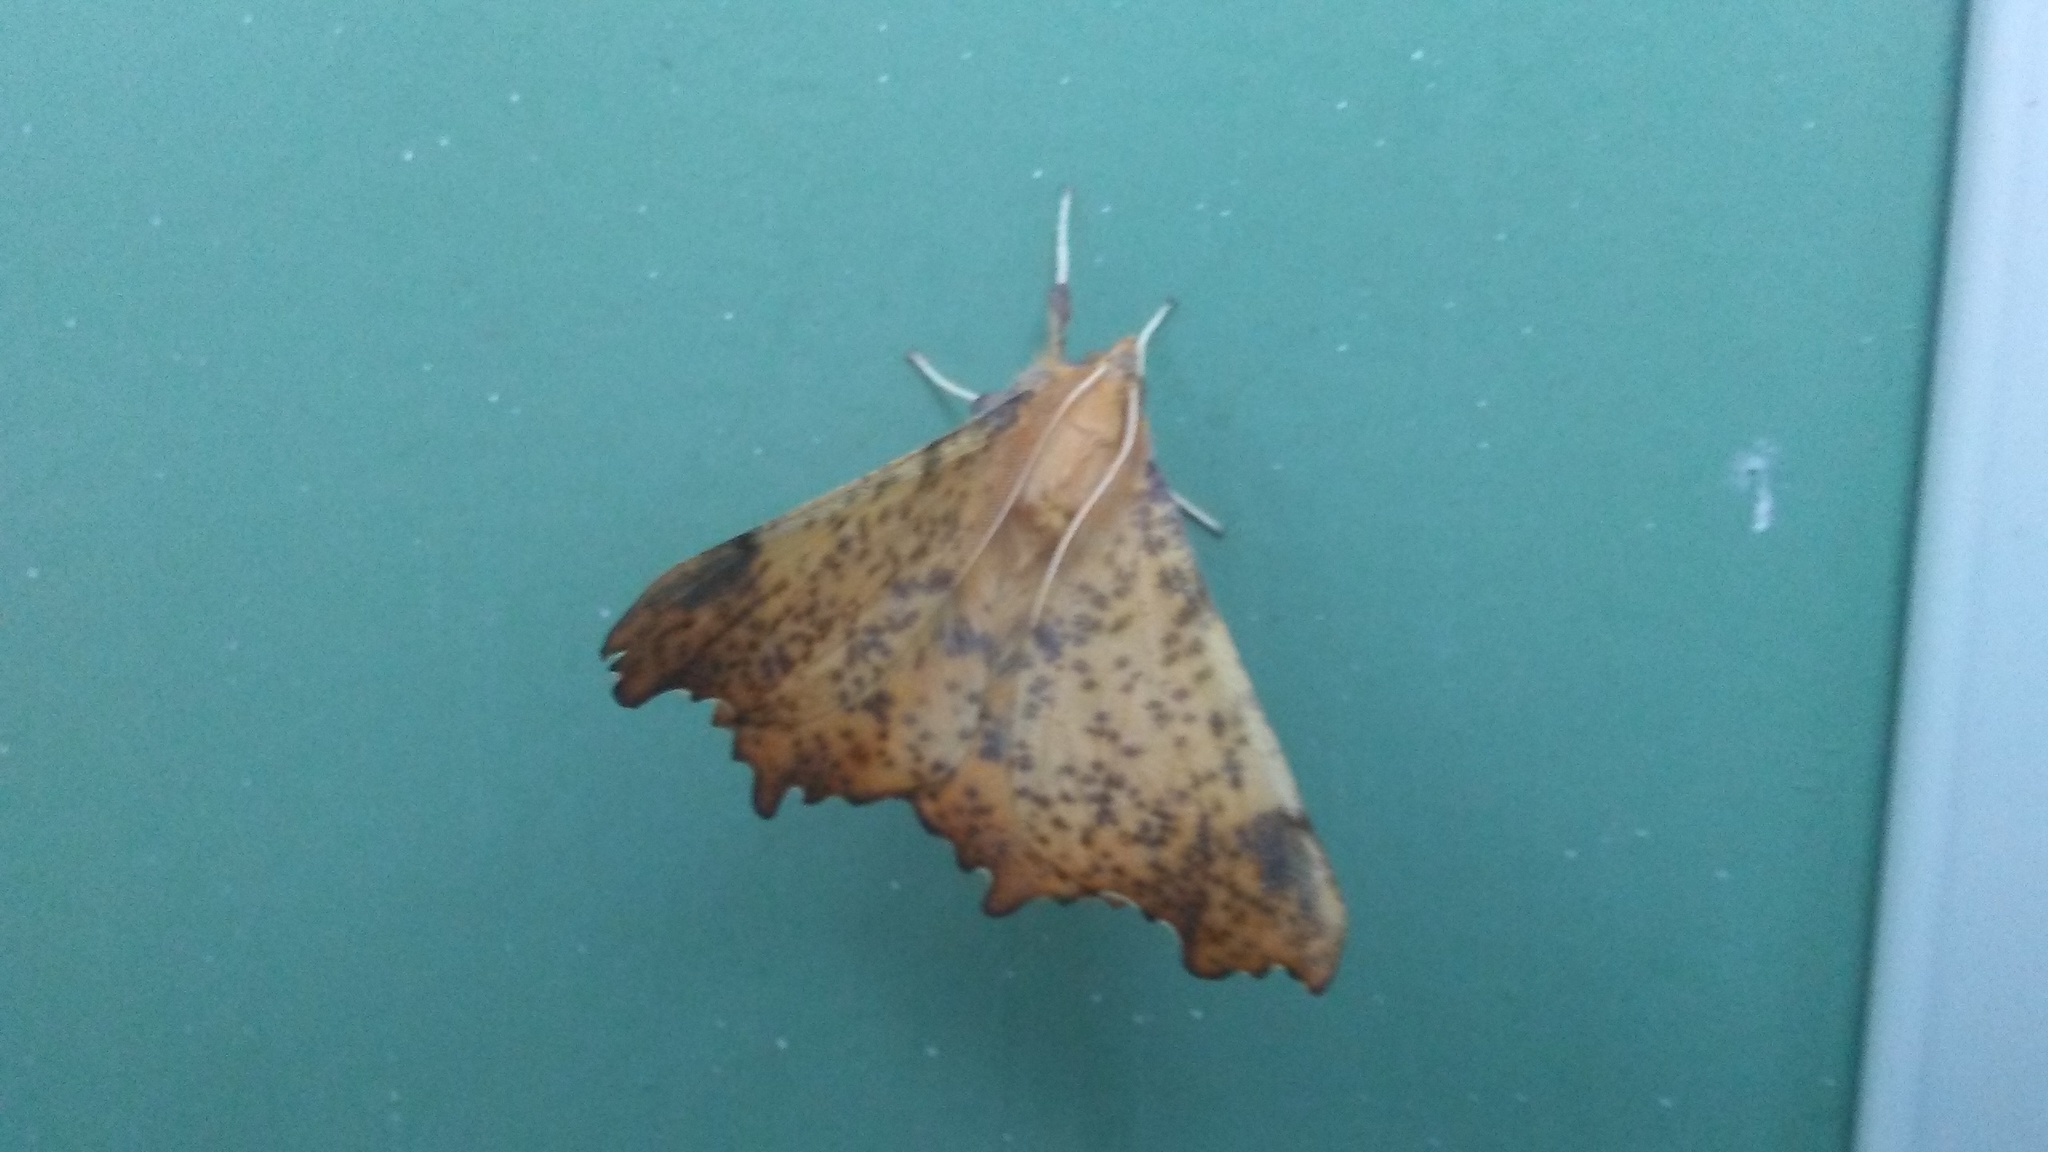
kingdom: Animalia
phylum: Arthropoda
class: Insecta
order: Lepidoptera
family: Geometridae
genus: Ennomos
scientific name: Ennomos magnaria
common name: Maple spanworm
